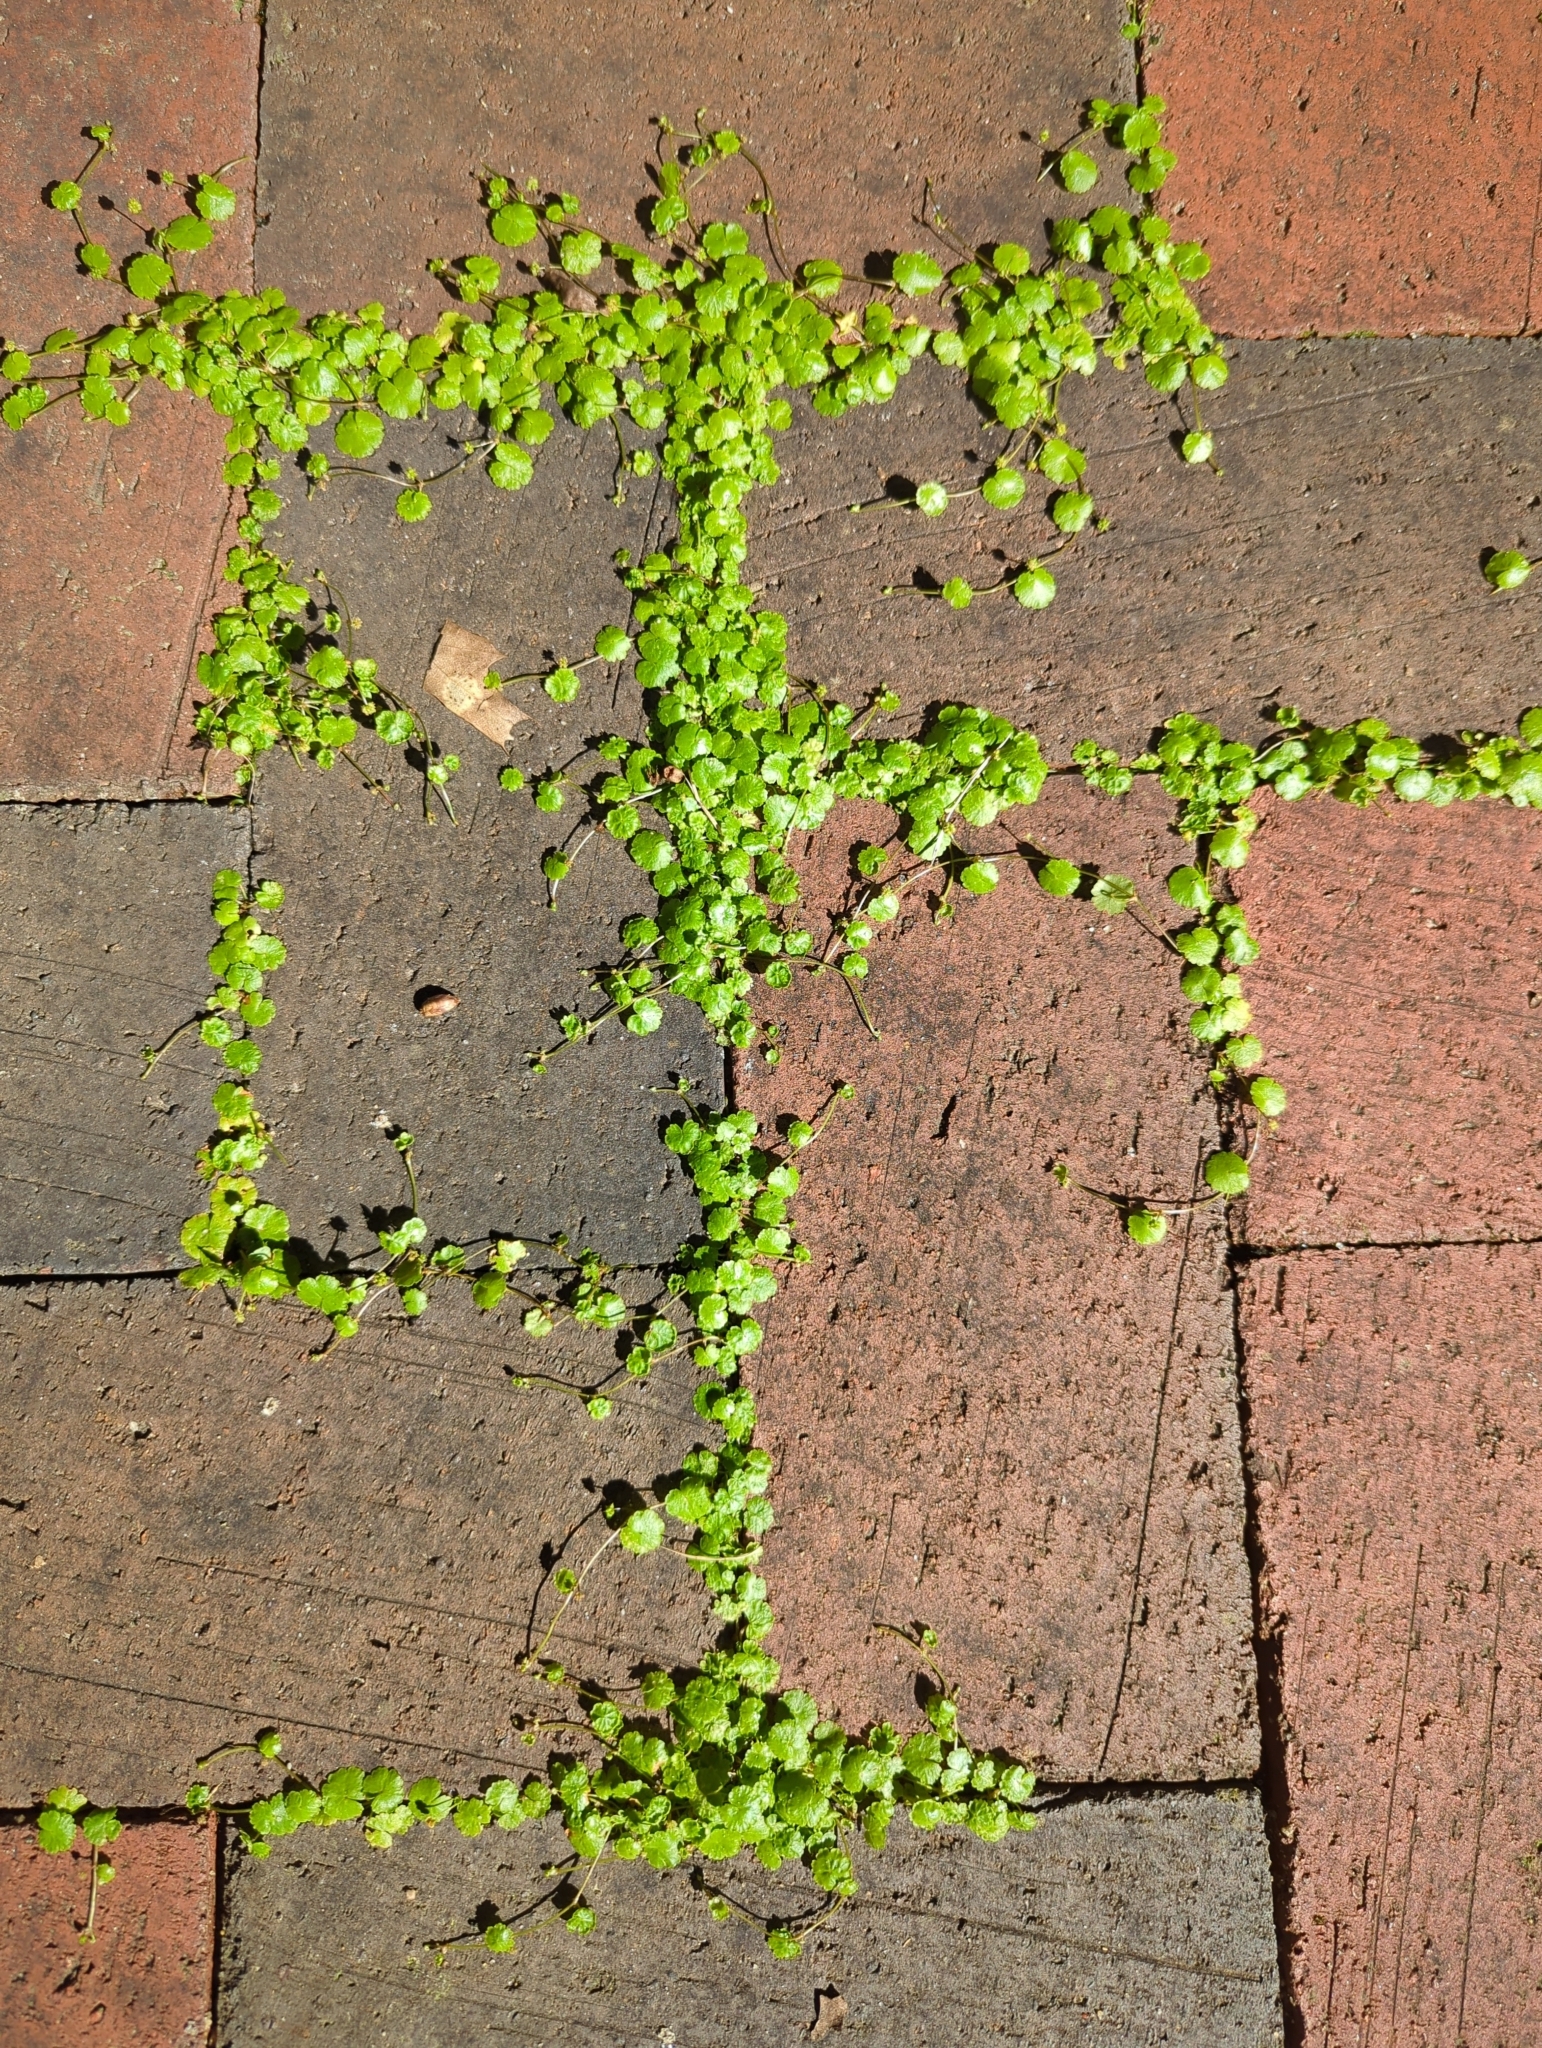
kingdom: Plantae
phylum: Tracheophyta
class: Magnoliopsida
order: Apiales
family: Araliaceae
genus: Hydrocotyle
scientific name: Hydrocotyle sibthorpioides
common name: Lawn marshpennywort
